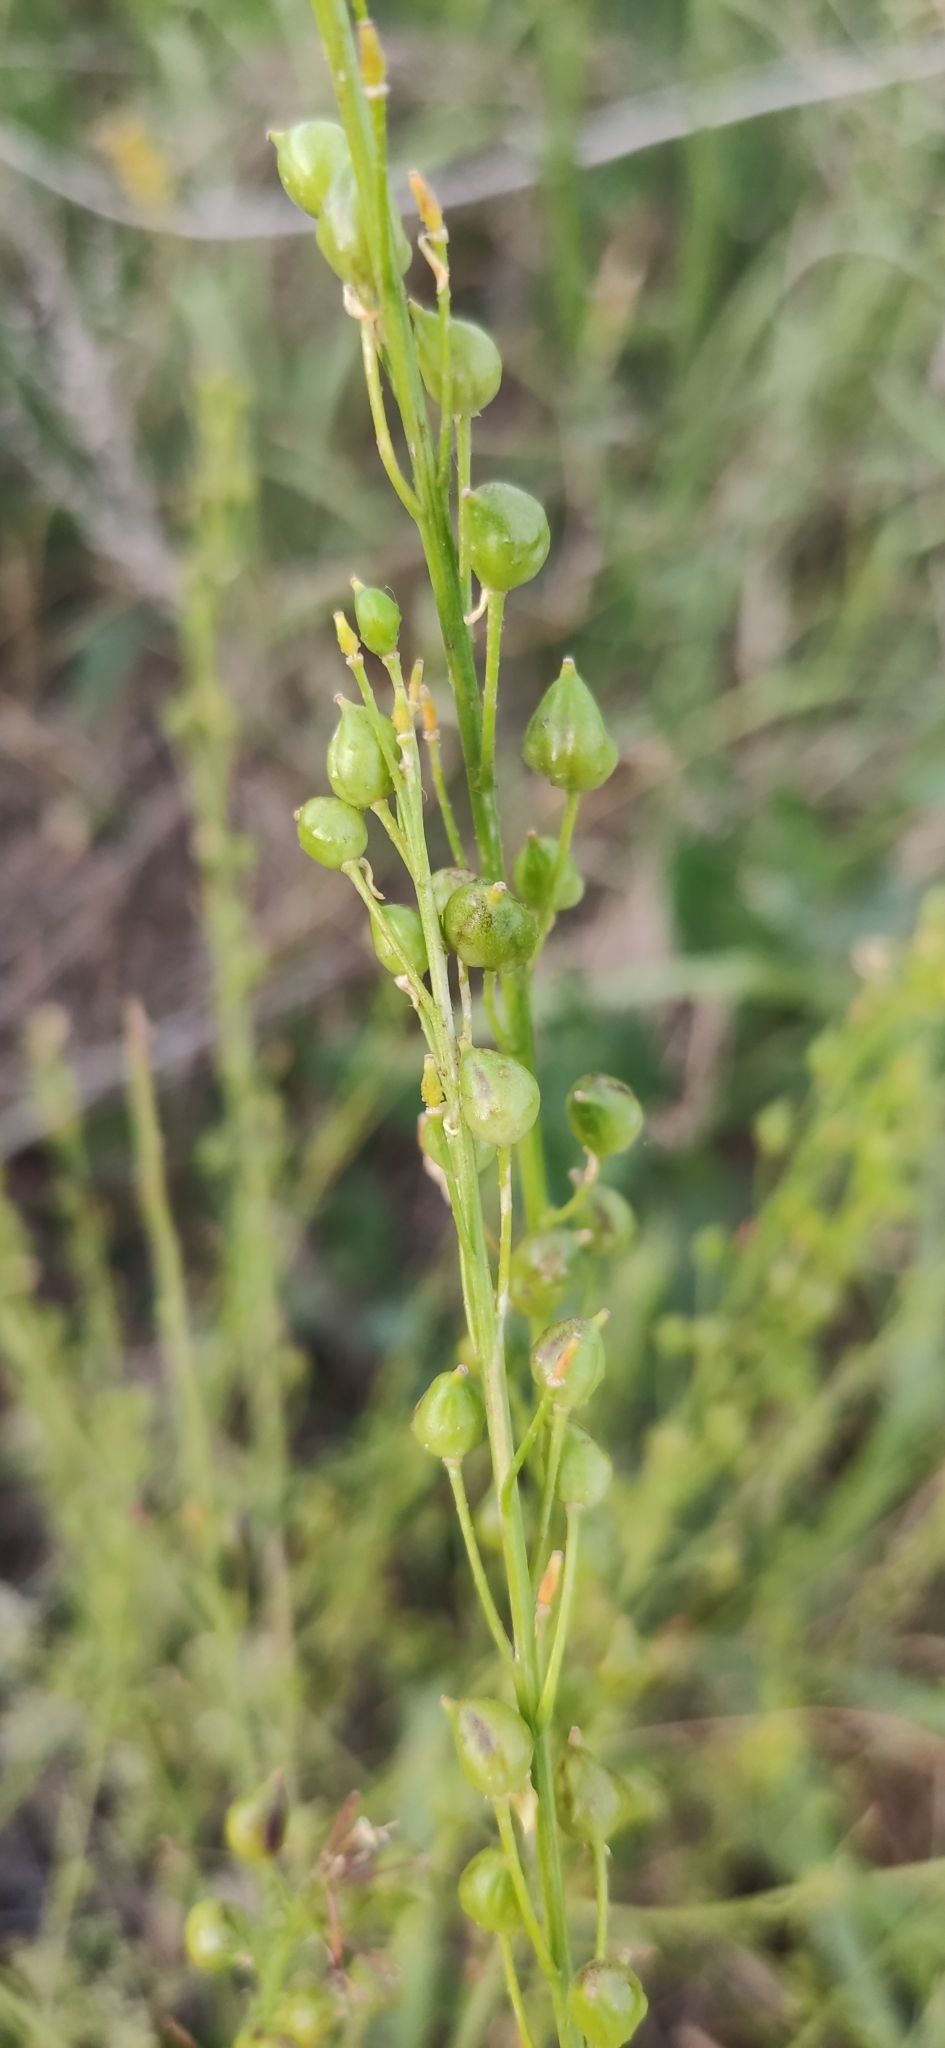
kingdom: Plantae
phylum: Tracheophyta
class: Magnoliopsida
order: Brassicales
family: Brassicaceae
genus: Bunias
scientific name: Bunias orientalis
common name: Warty-cabbage
